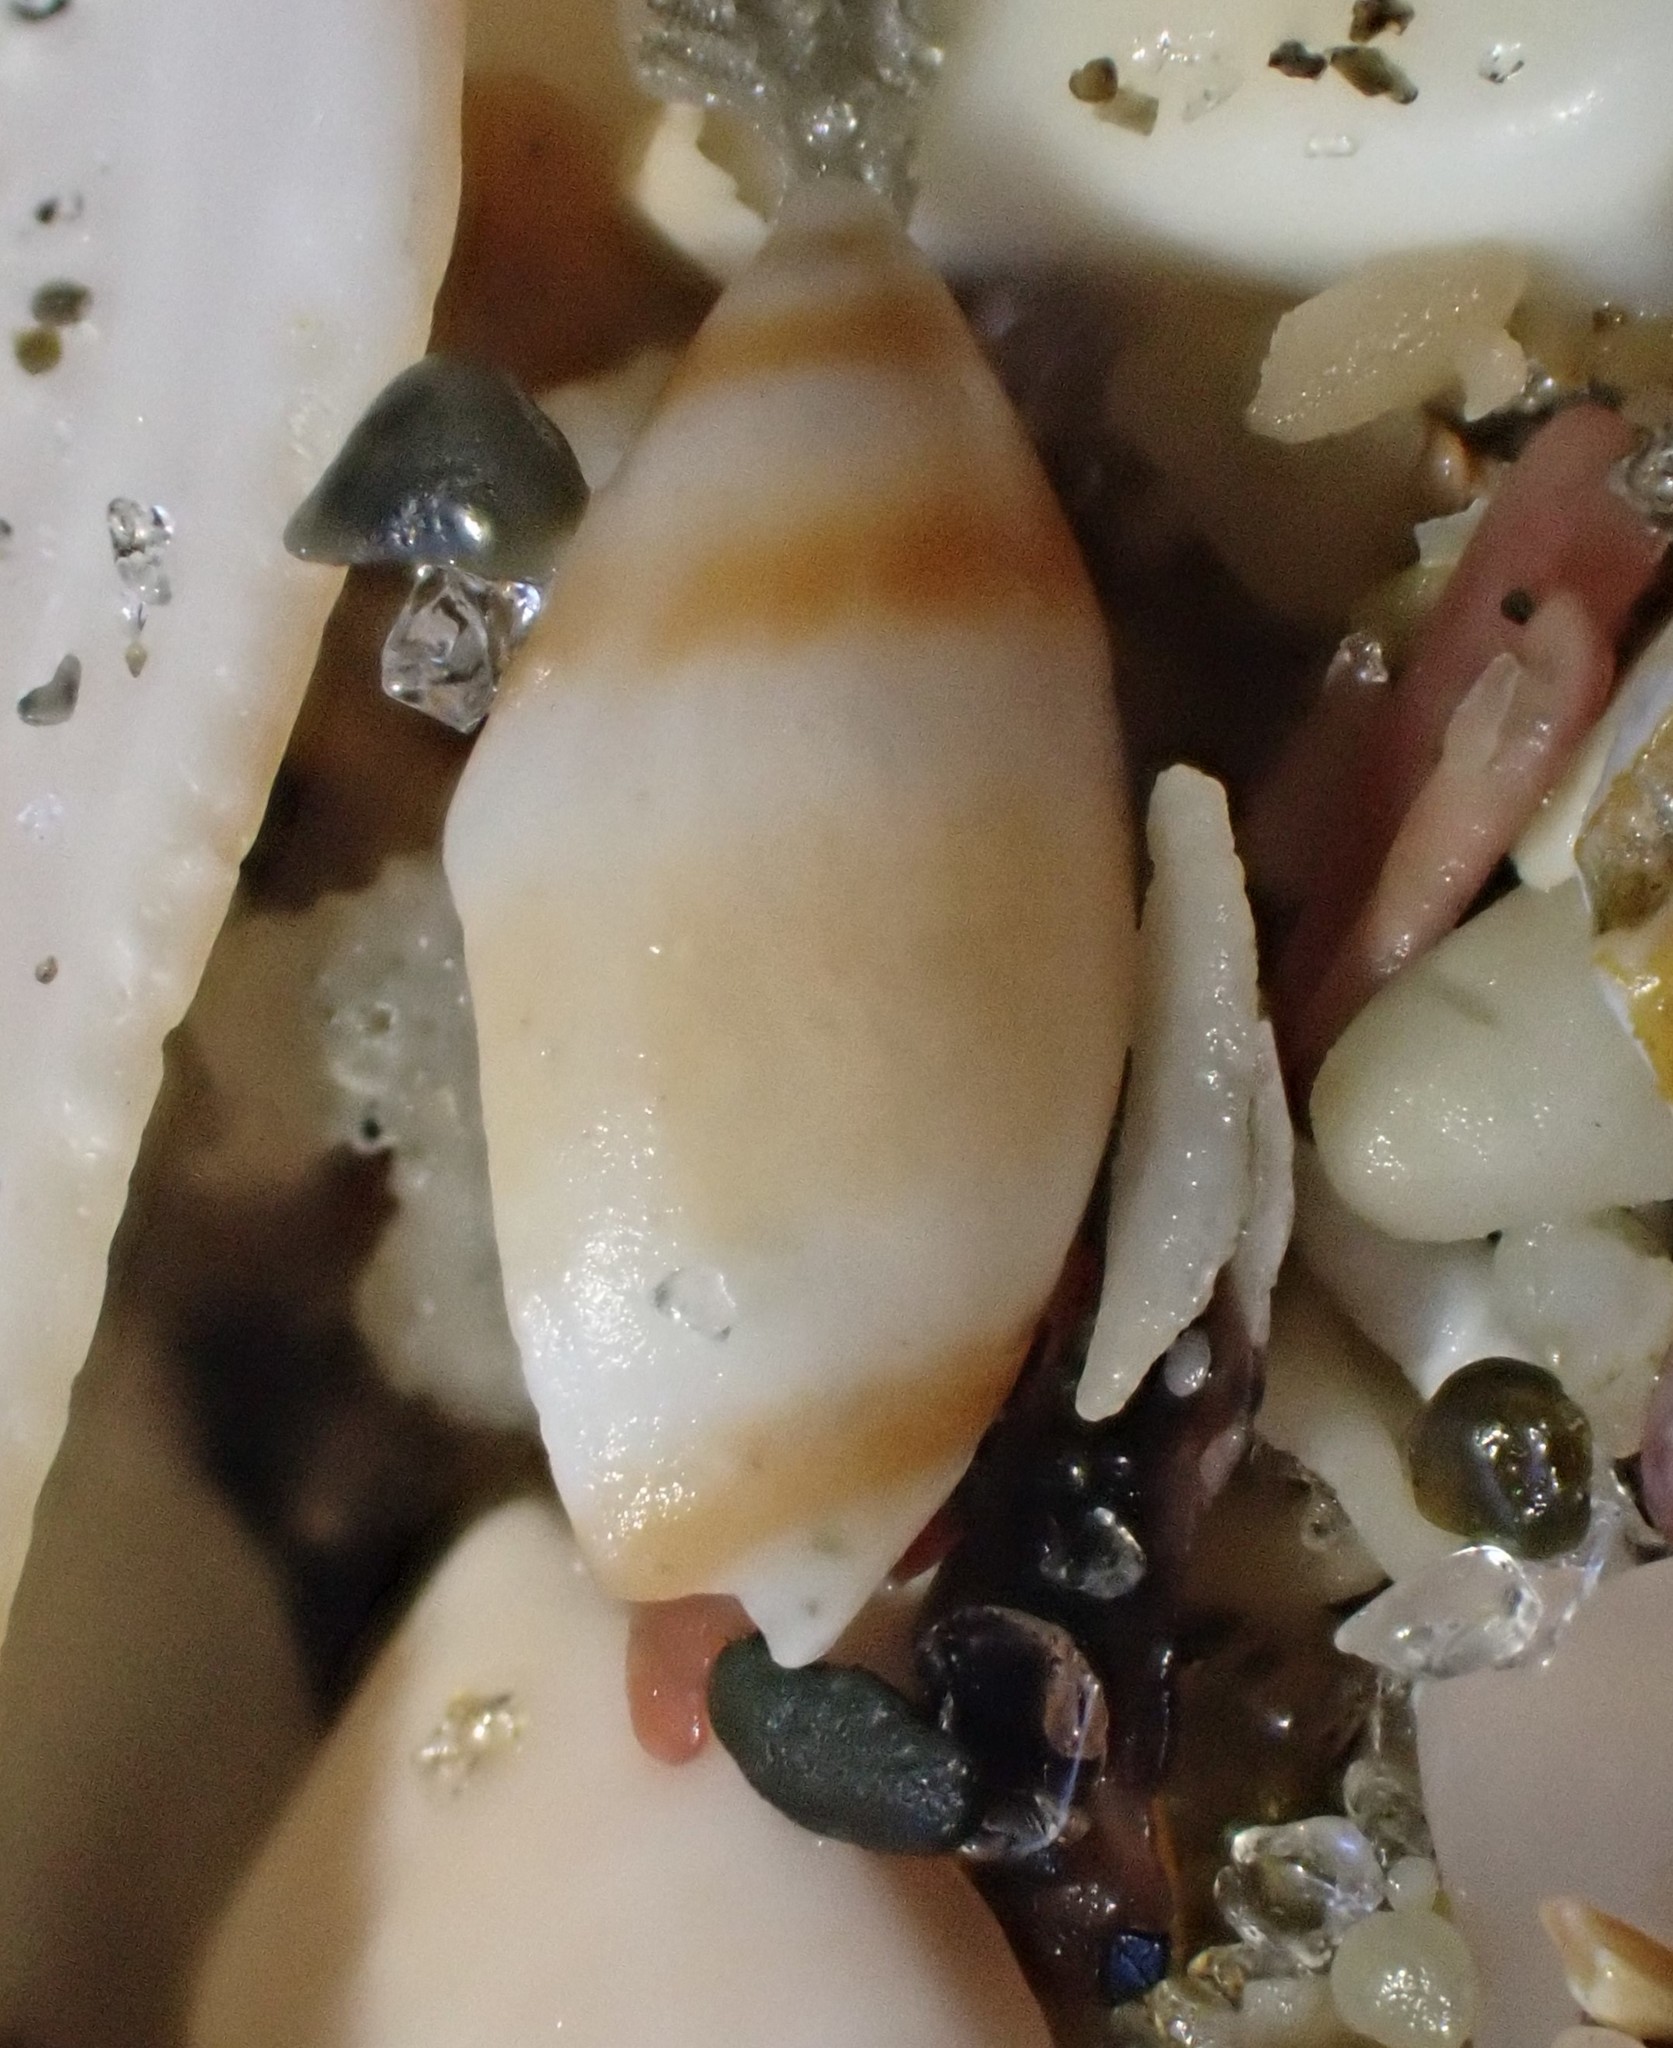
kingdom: Animalia
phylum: Mollusca
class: Gastropoda
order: Neogastropoda
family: Ancillariidae
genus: Amalda
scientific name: Amalda novaezelandiae
